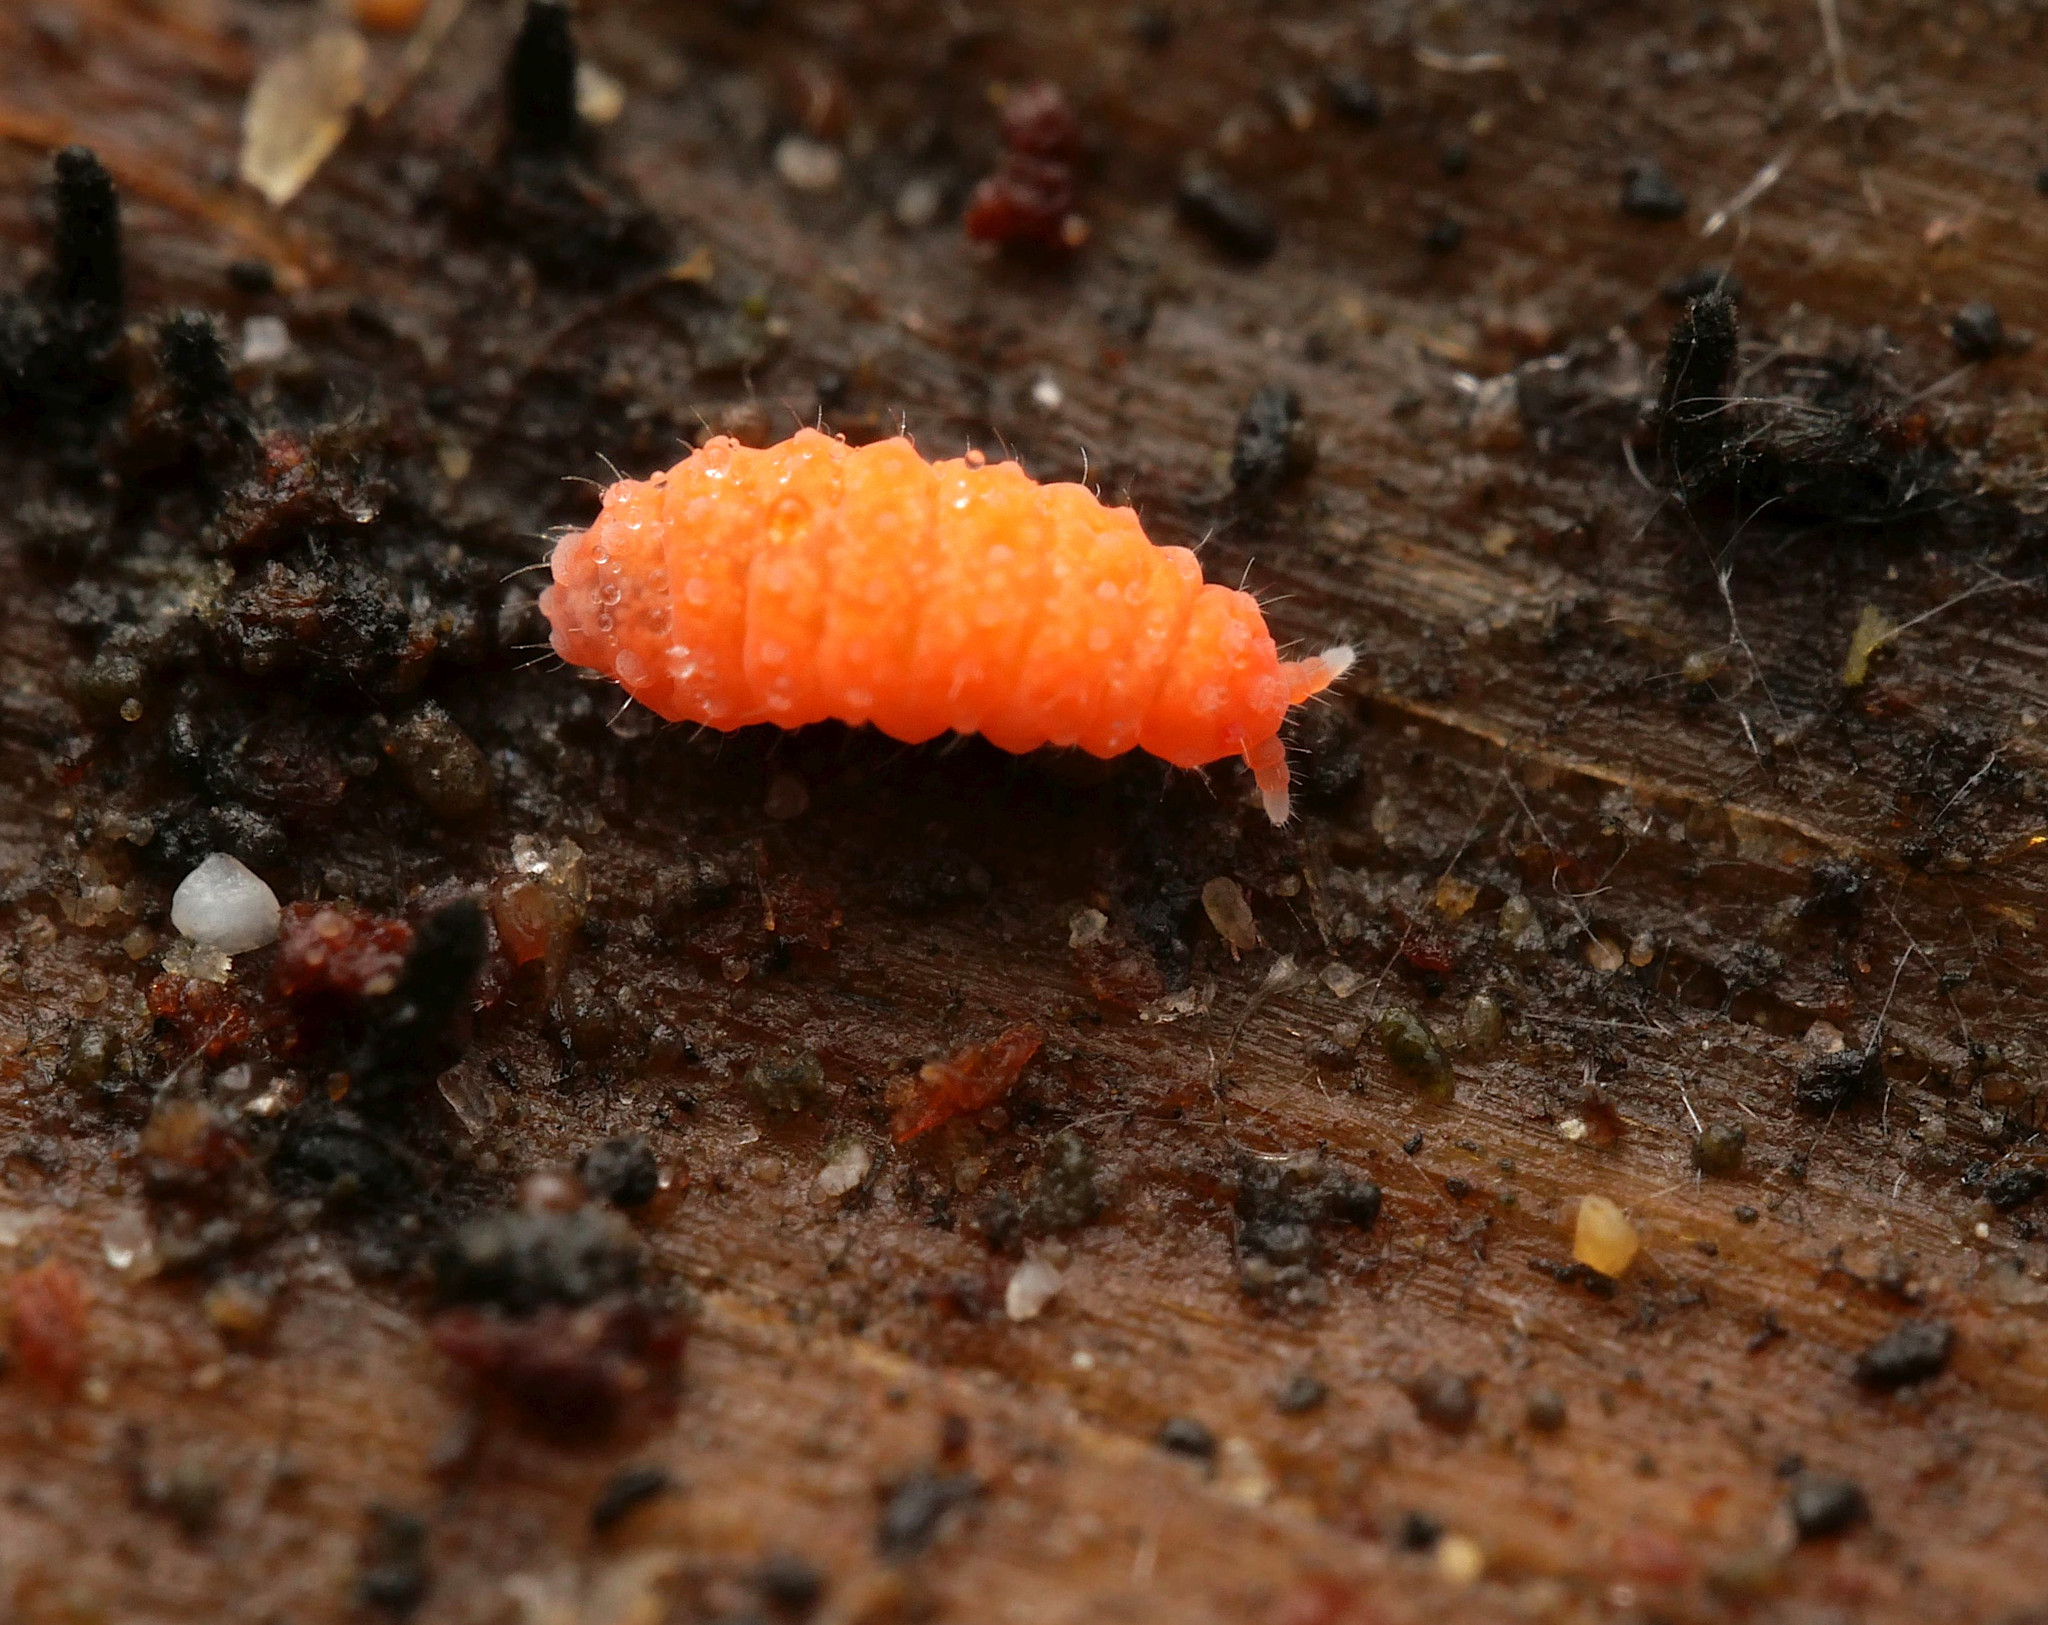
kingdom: Animalia
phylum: Arthropoda
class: Collembola
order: Poduromorpha
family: Neanuridae
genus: Bilobella
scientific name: Bilobella braunerae
